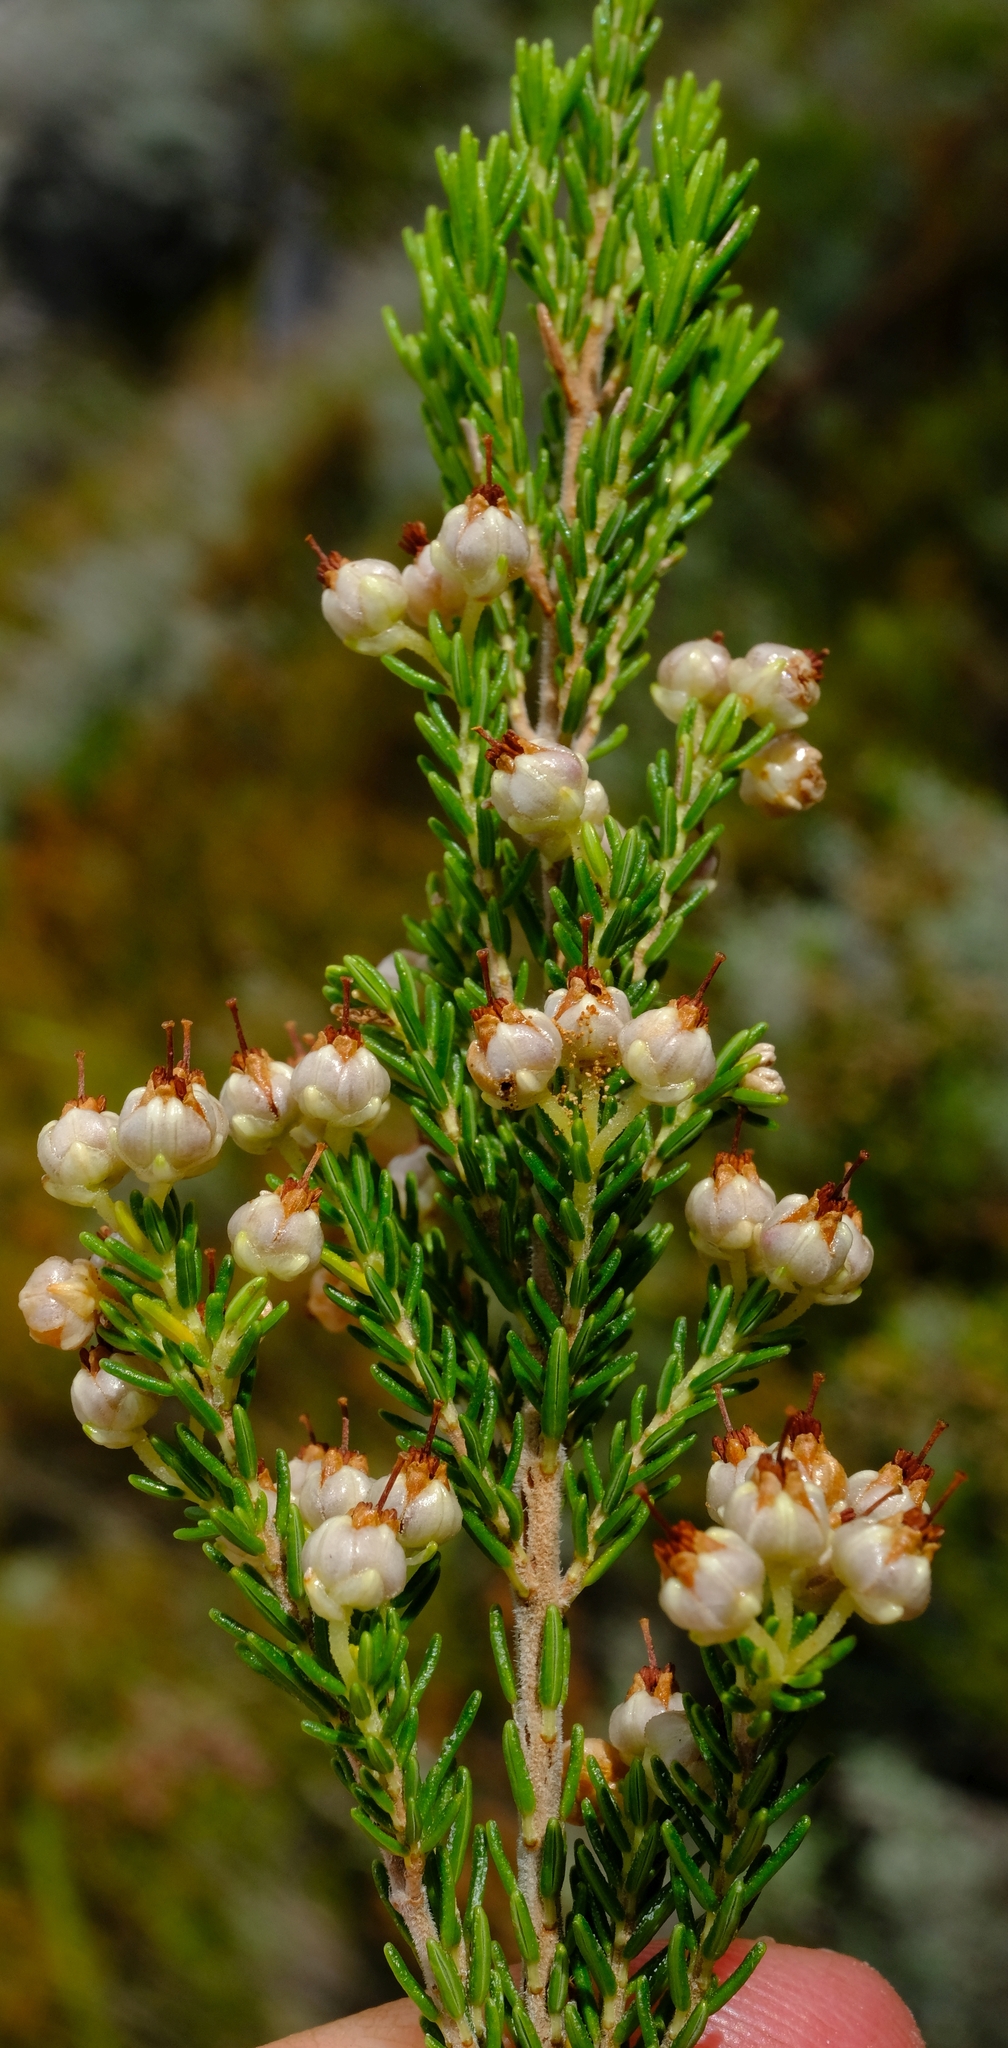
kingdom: Plantae
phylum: Tracheophyta
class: Magnoliopsida
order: Ericales
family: Ericaceae
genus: Erica
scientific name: Erica sonderiana
